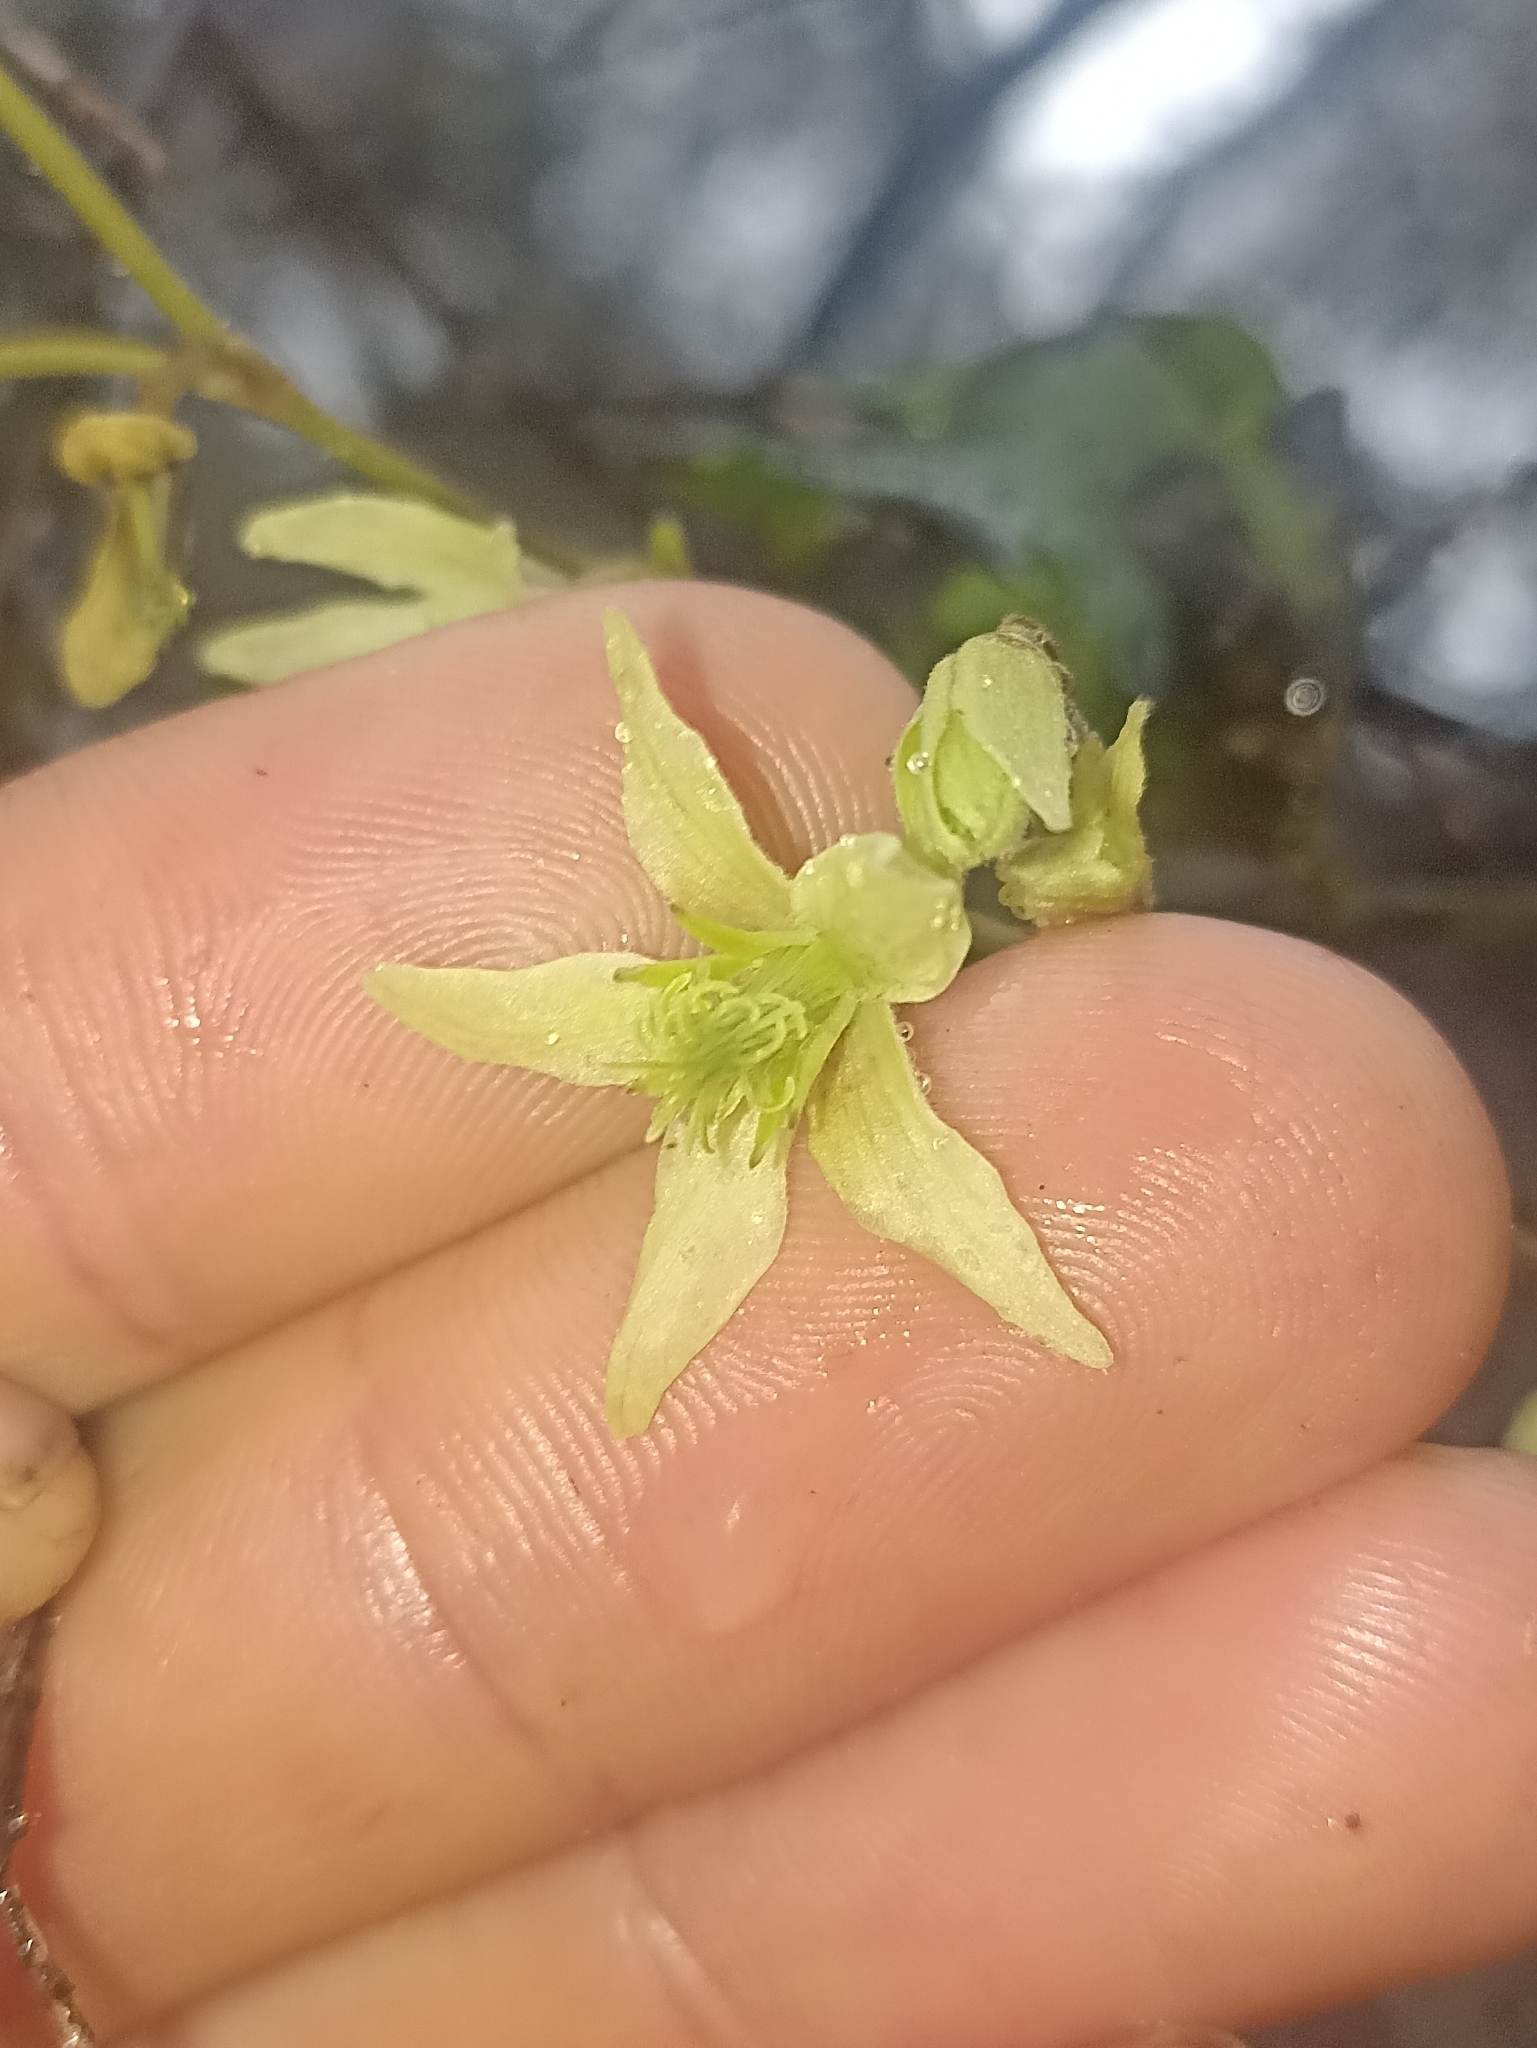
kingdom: Plantae
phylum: Tracheophyta
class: Magnoliopsida
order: Ranunculales
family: Ranunculaceae
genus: Clematis
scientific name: Clematis foetida
